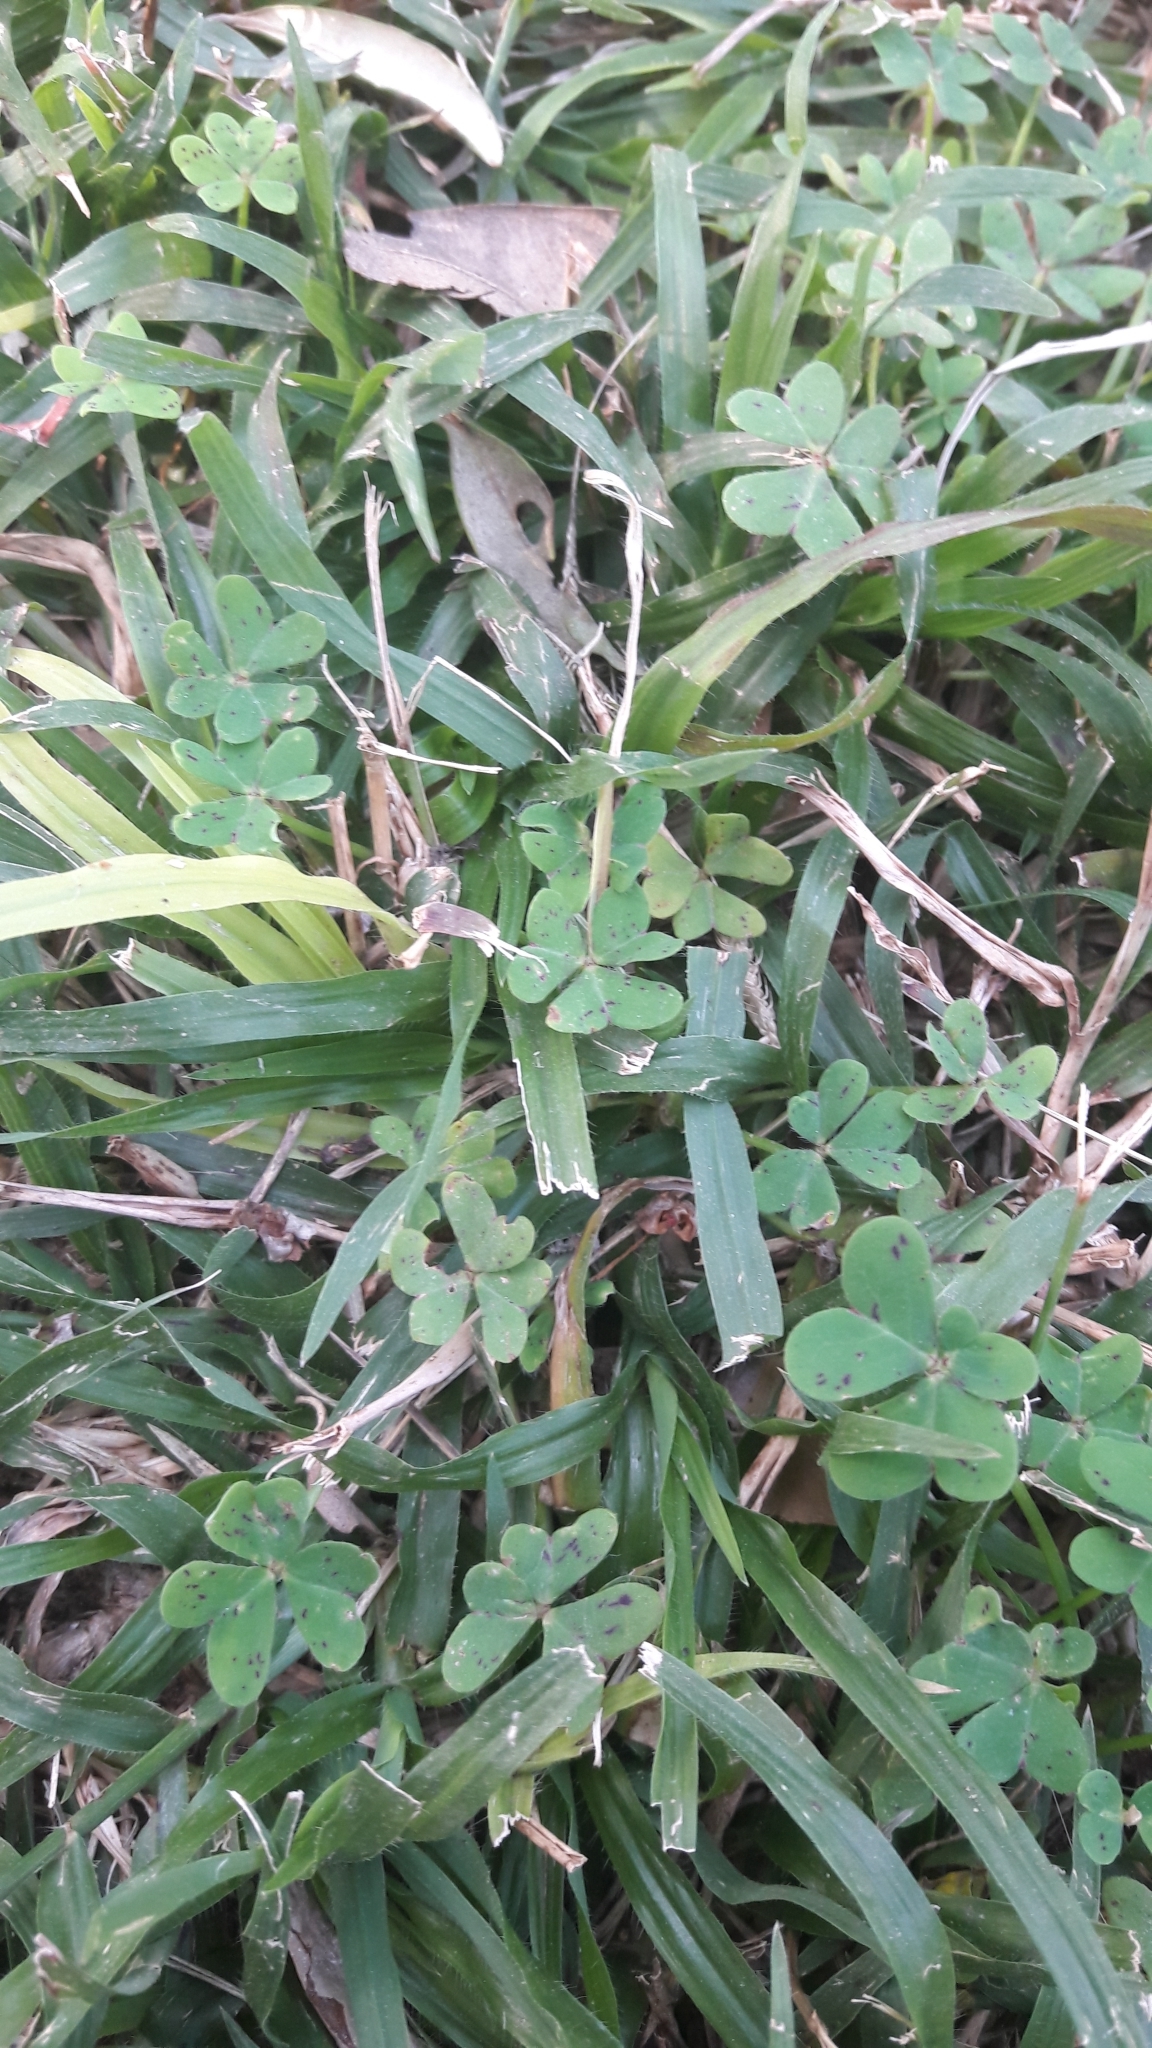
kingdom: Plantae
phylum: Tracheophyta
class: Magnoliopsida
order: Oxalidales
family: Oxalidaceae
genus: Oxalis
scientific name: Oxalis pes-caprae
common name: Bermuda-buttercup
